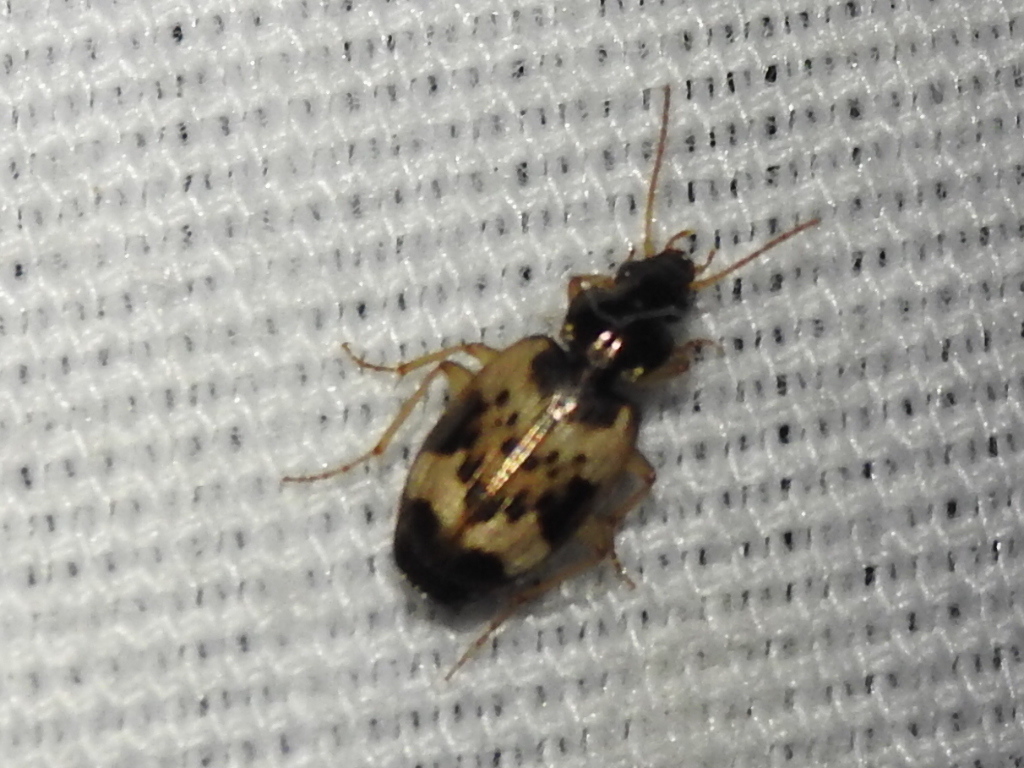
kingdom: Animalia
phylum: Arthropoda
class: Insecta
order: Coleoptera
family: Carabidae
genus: Tetragonoderus
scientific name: Tetragonoderus fasciatus
